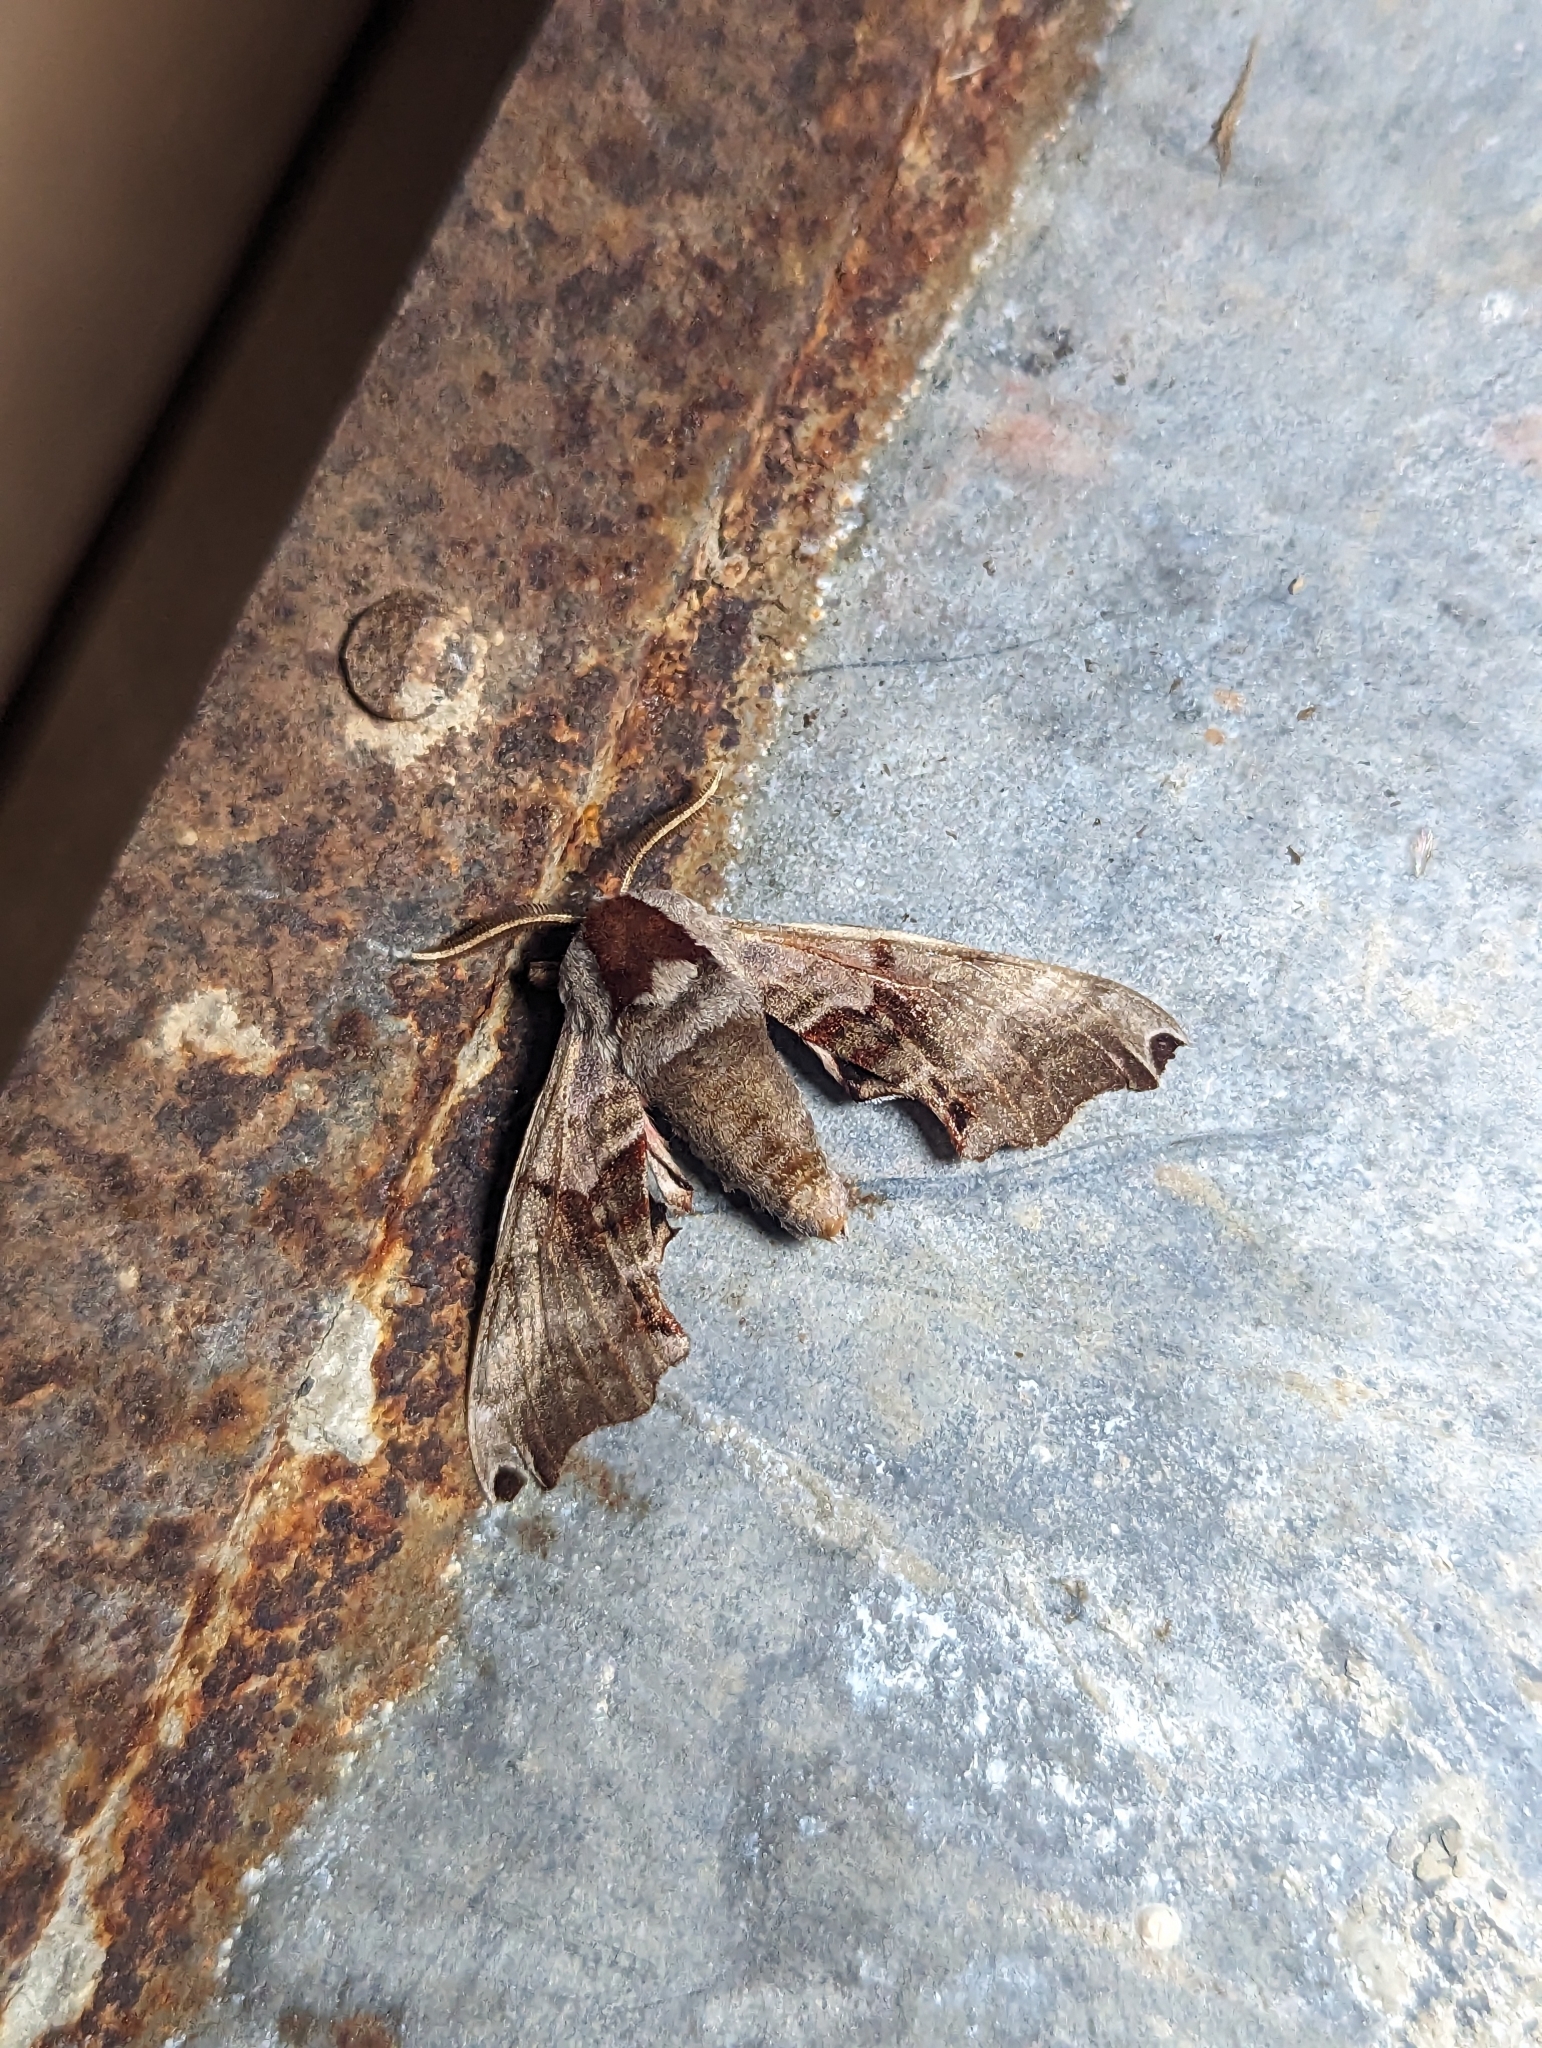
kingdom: Animalia
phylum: Arthropoda
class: Insecta
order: Lepidoptera
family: Sphingidae
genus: Smerinthus
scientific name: Smerinthus jamaicensis
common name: Twin spotted sphinx
